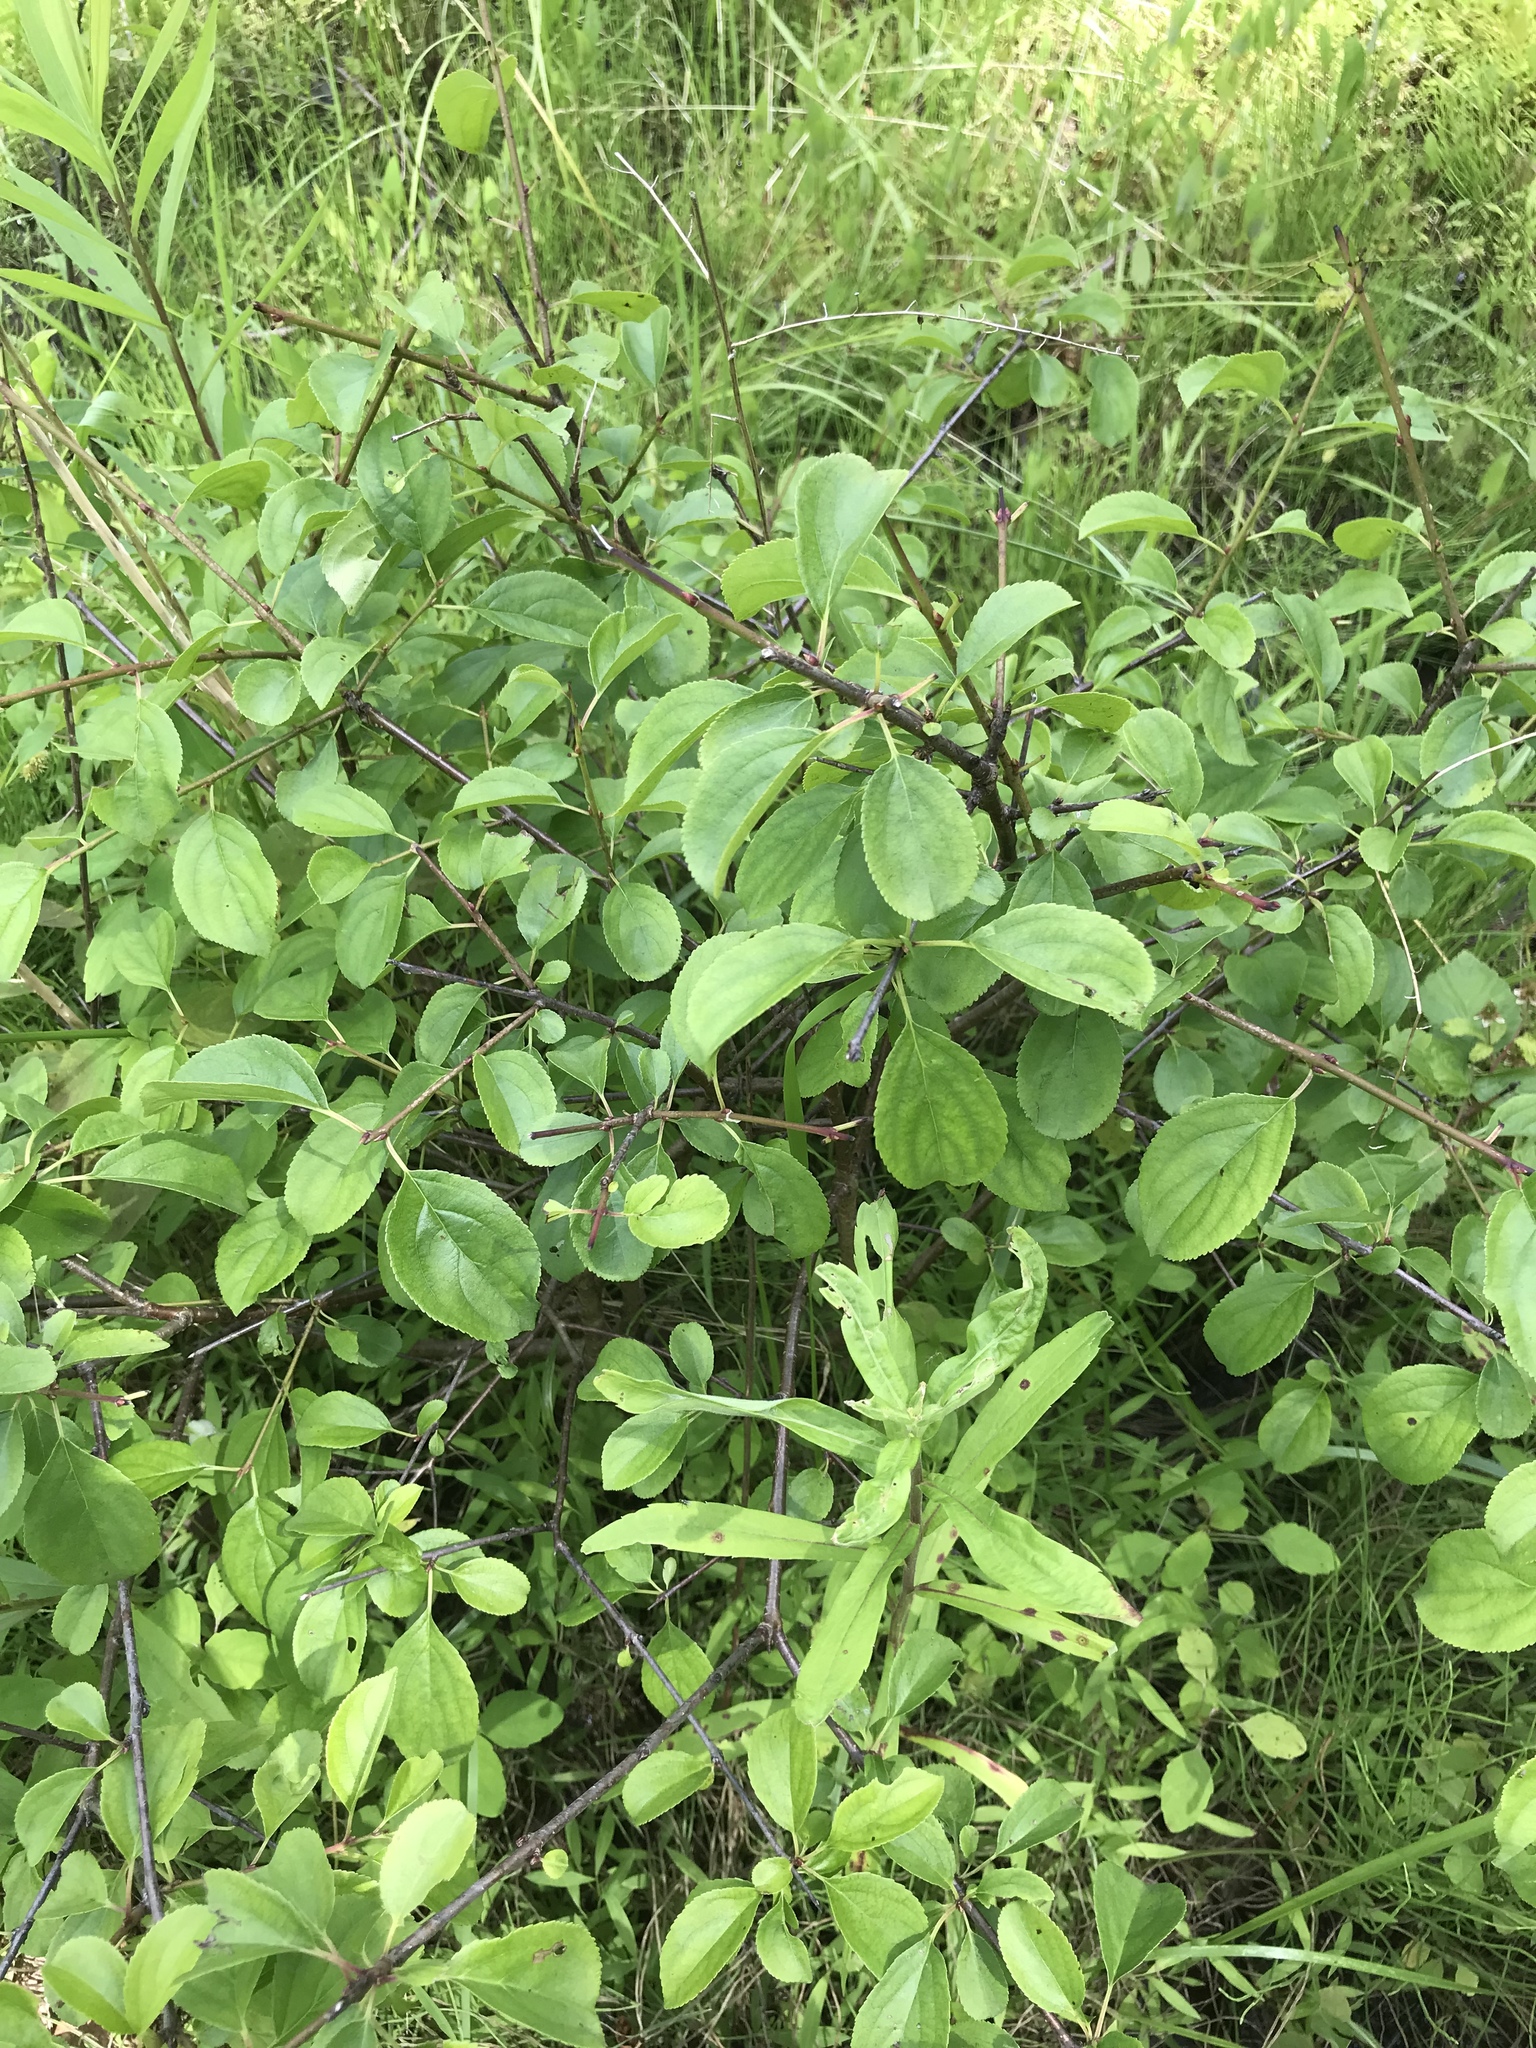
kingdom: Plantae
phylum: Tracheophyta
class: Magnoliopsida
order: Rosales
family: Rhamnaceae
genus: Rhamnus
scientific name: Rhamnus cathartica
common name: Common buckthorn
